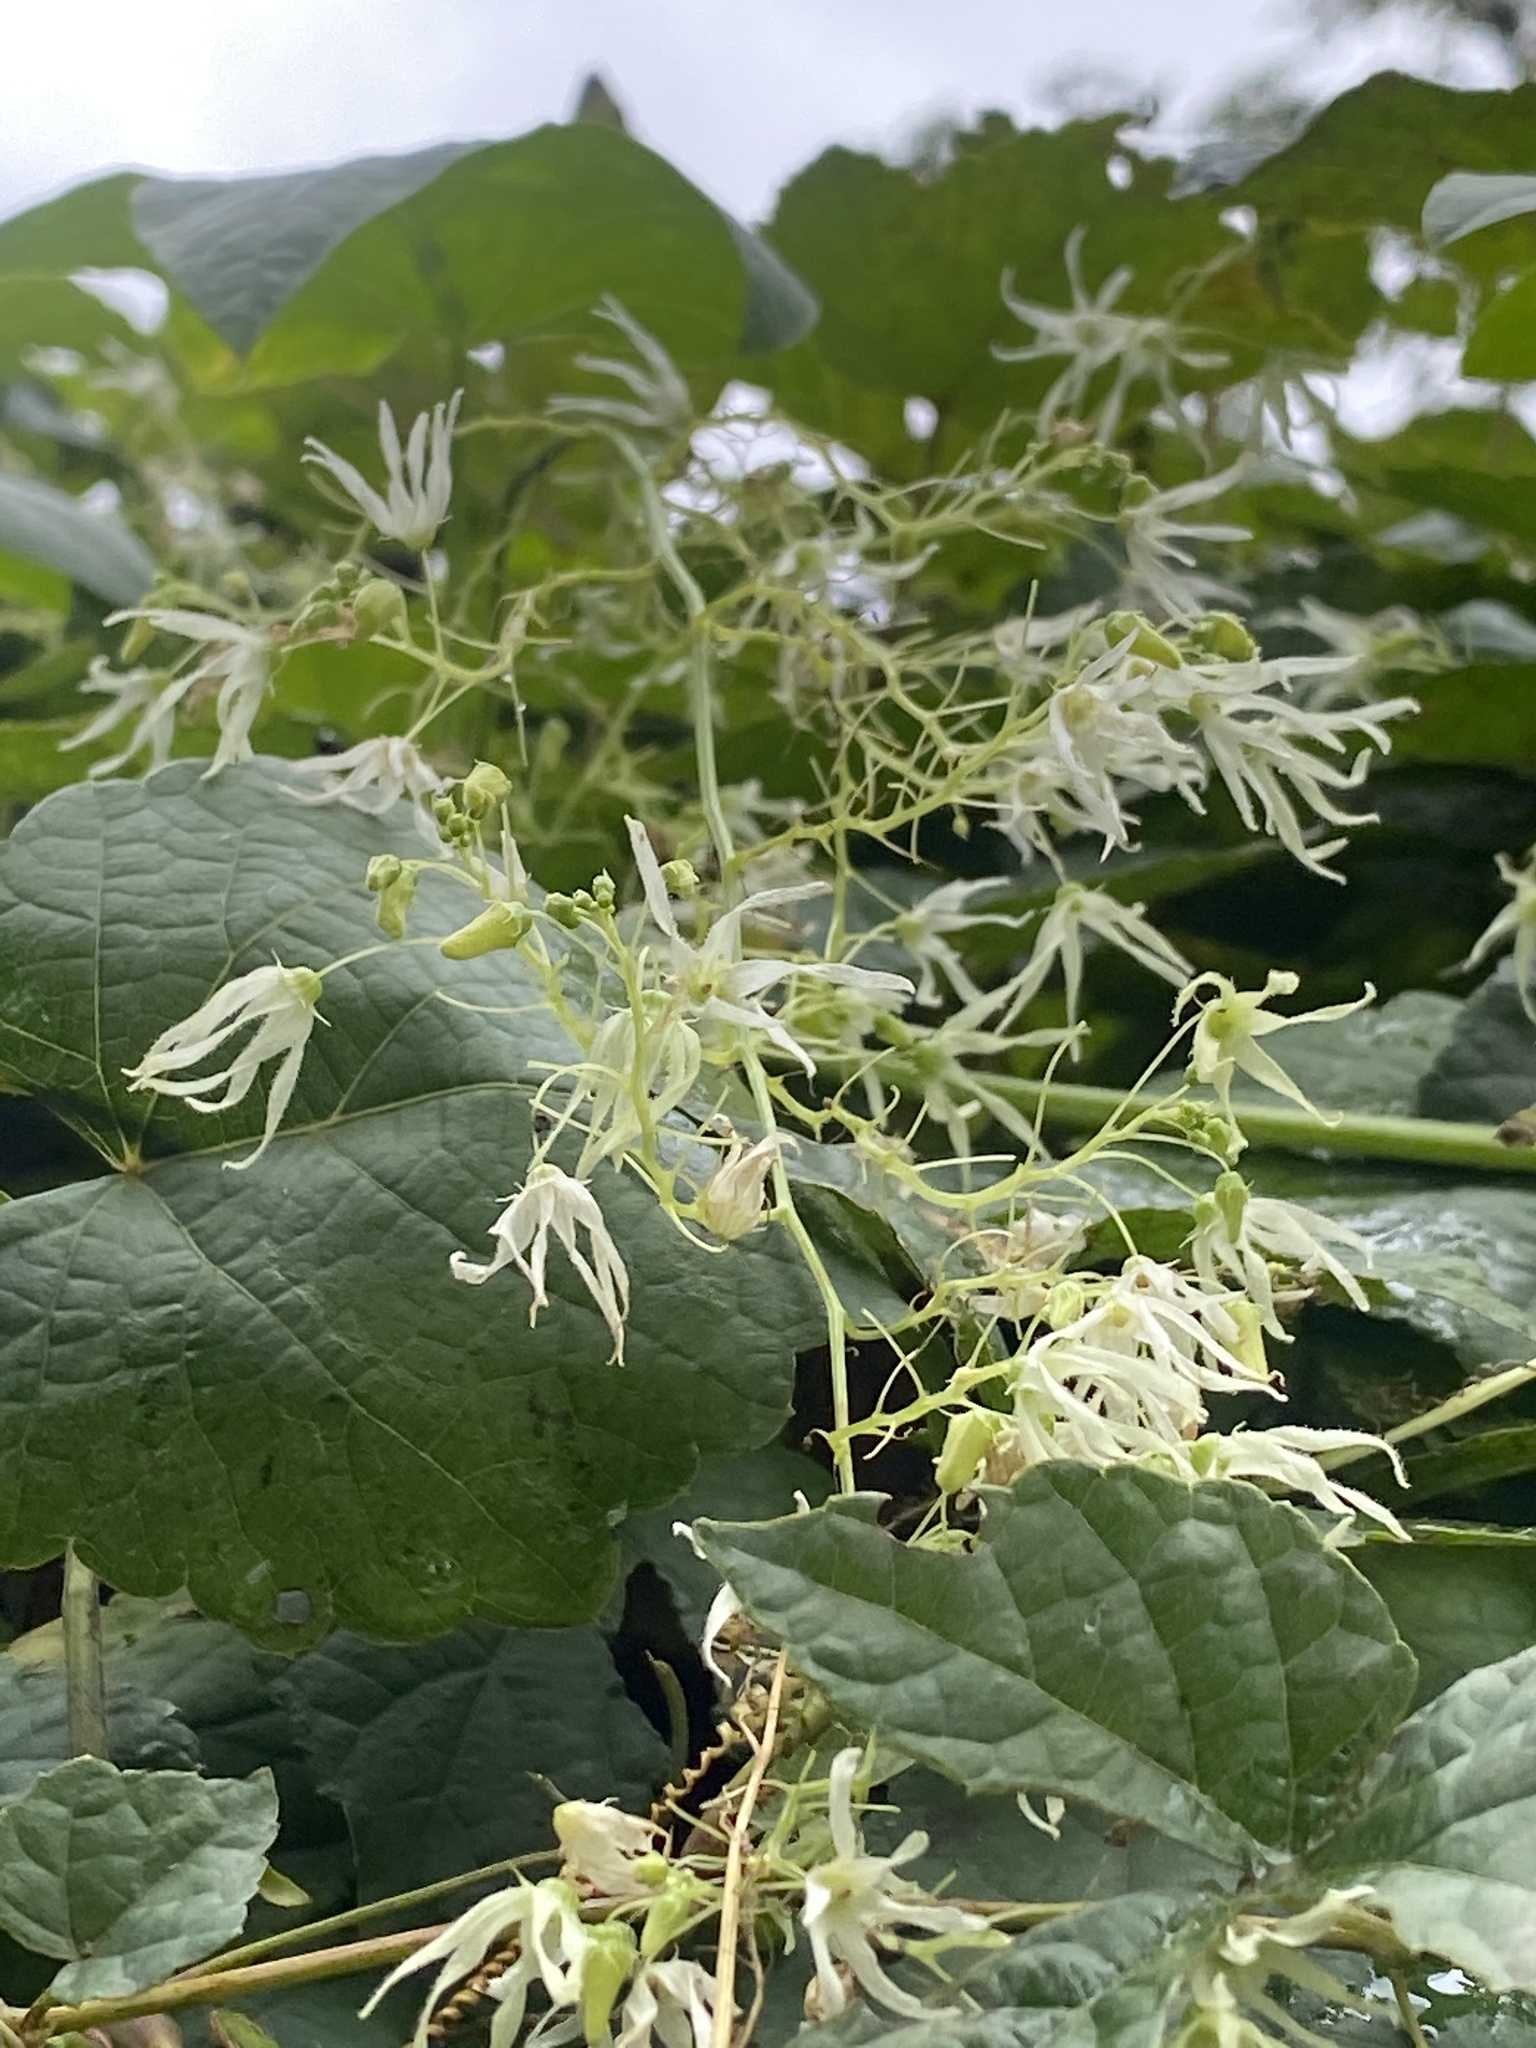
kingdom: Plantae
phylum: Tracheophyta
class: Magnoliopsida
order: Cucurbitales
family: Cucurbitaceae
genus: Echinocystis
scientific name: Echinocystis lobata
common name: Wild cucumber
